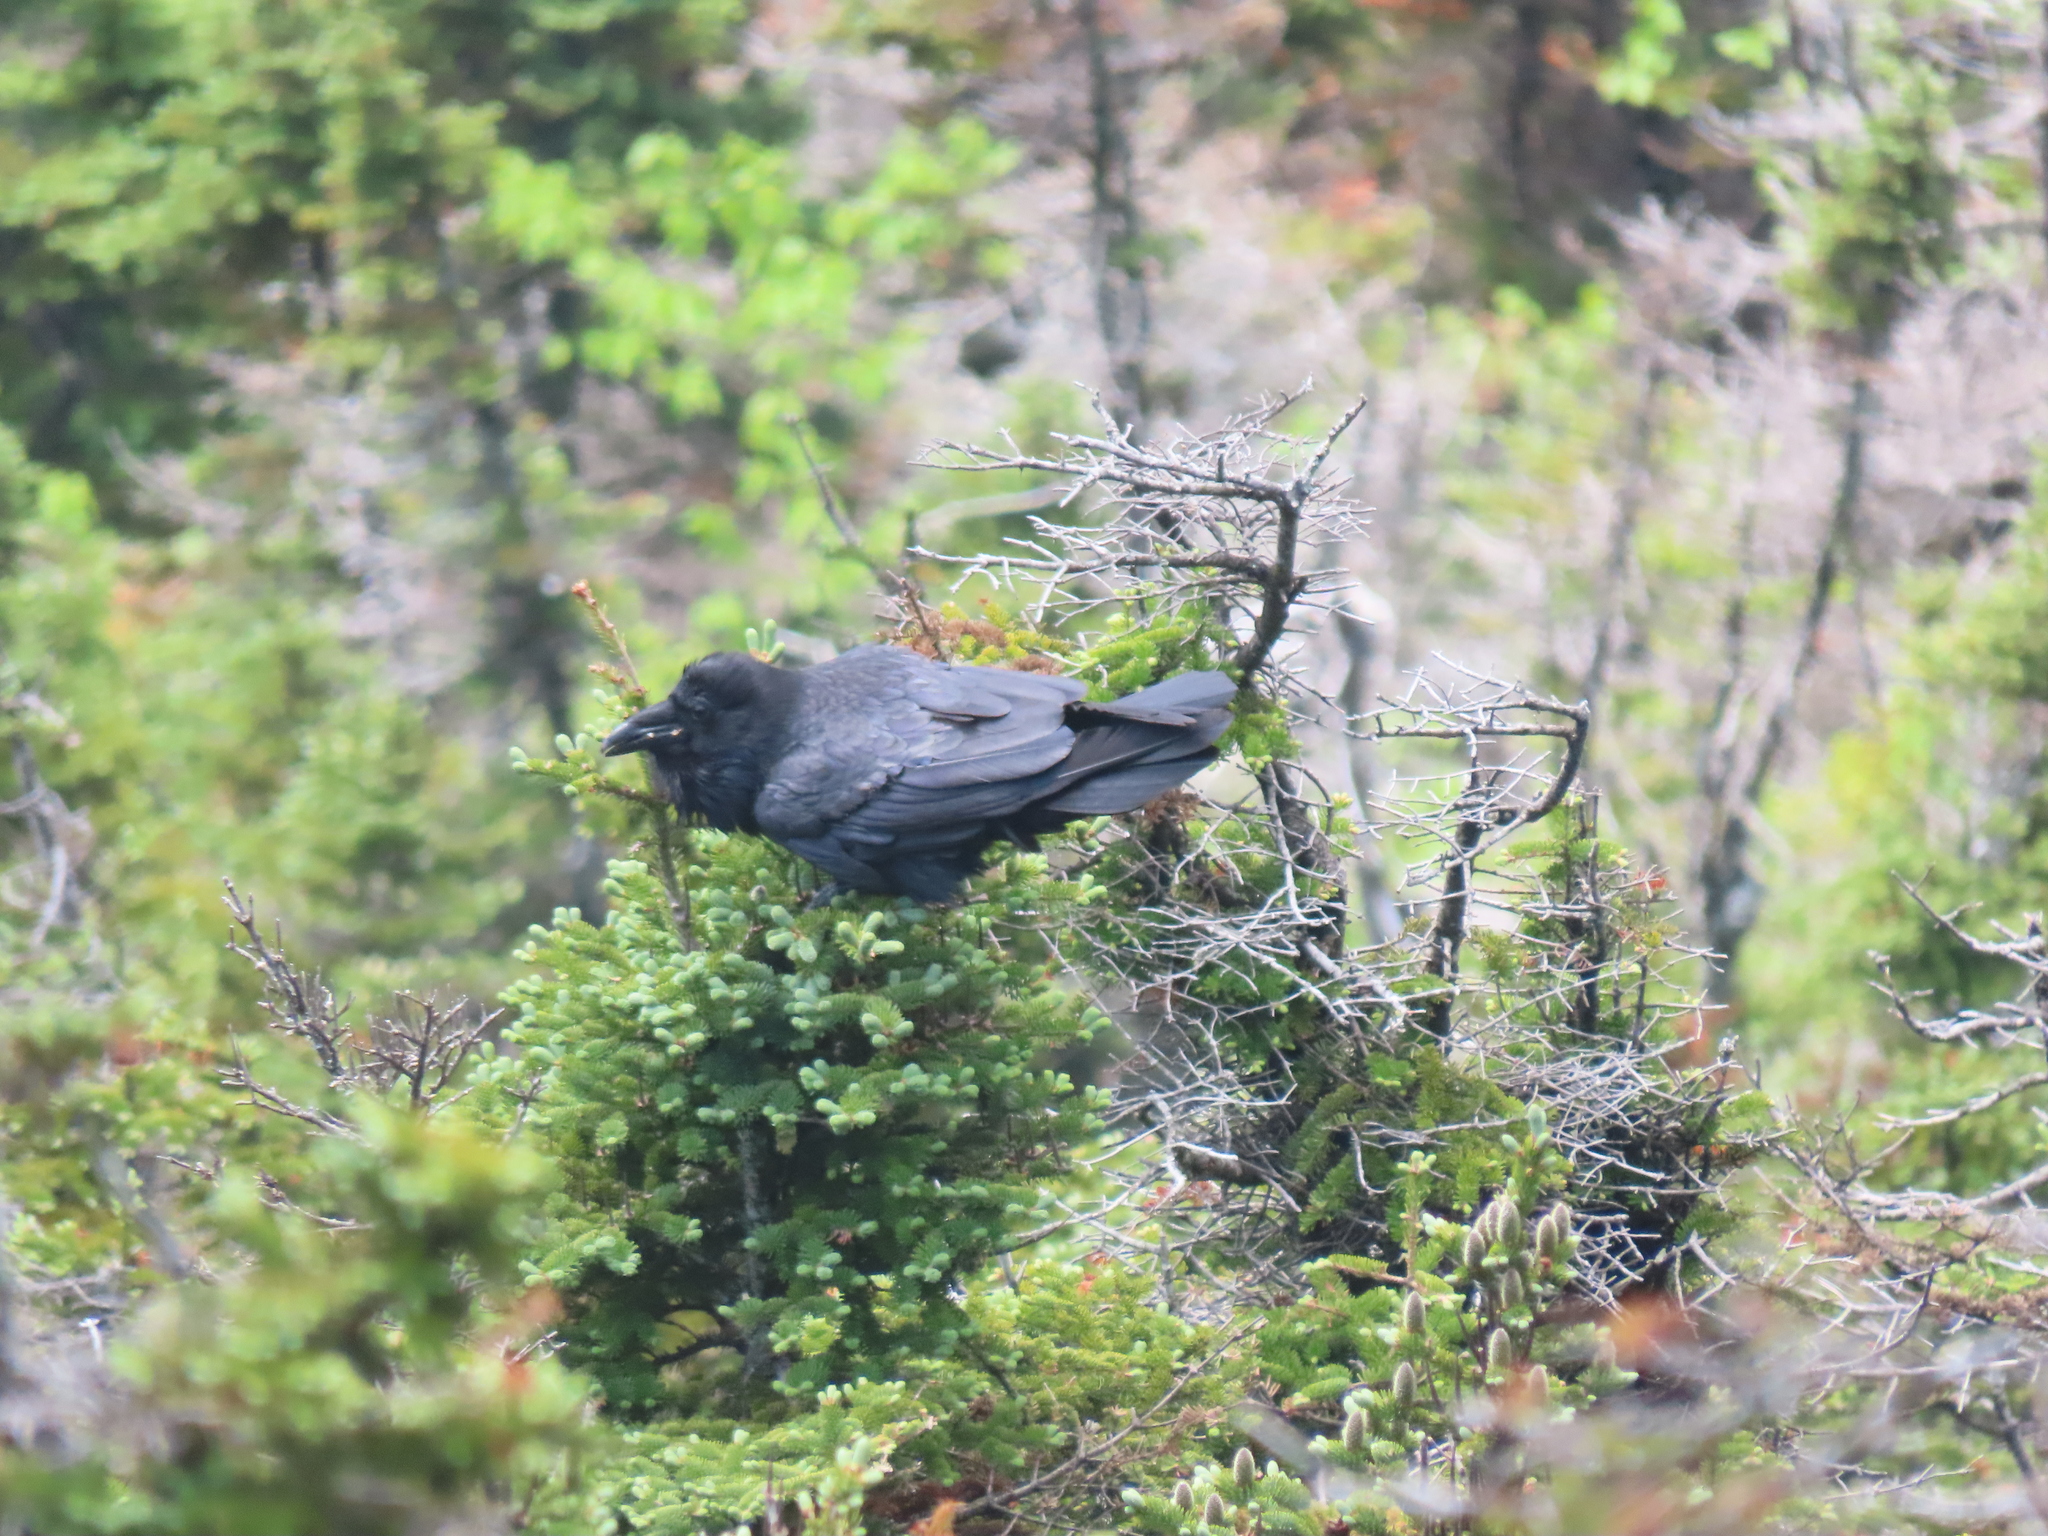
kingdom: Animalia
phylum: Chordata
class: Aves
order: Passeriformes
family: Corvidae
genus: Corvus
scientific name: Corvus corax
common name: Common raven
